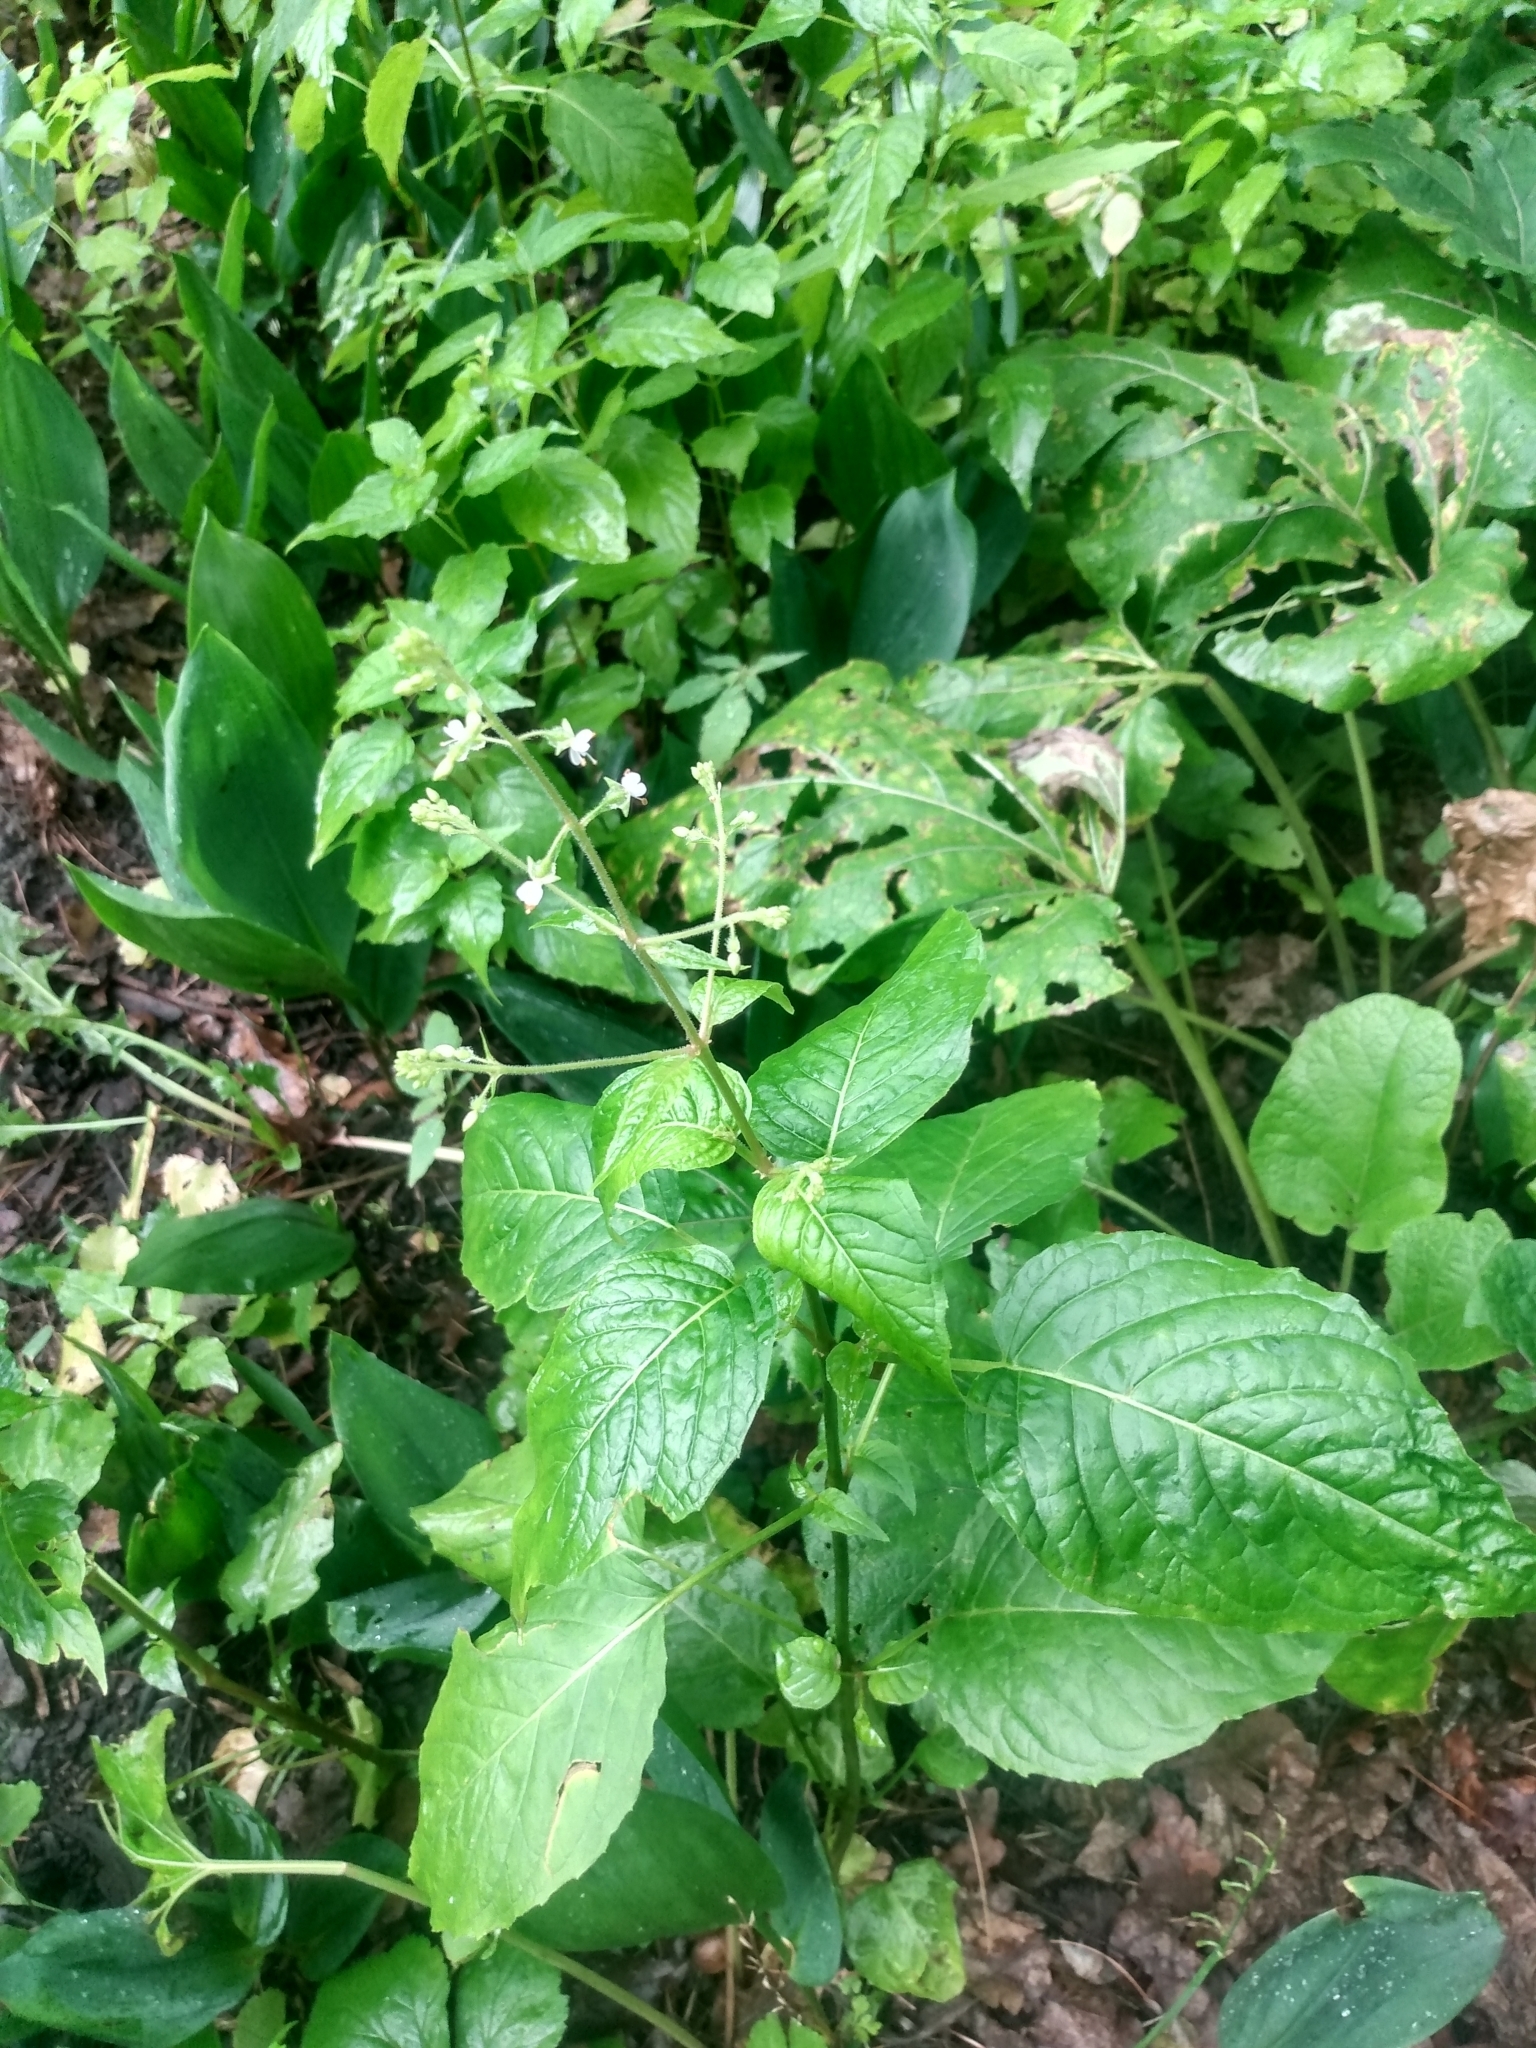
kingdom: Plantae
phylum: Tracheophyta
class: Magnoliopsida
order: Myrtales
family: Onagraceae
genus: Circaea
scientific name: Circaea canadensis
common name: Broad-leaved enchanter's nightshade
